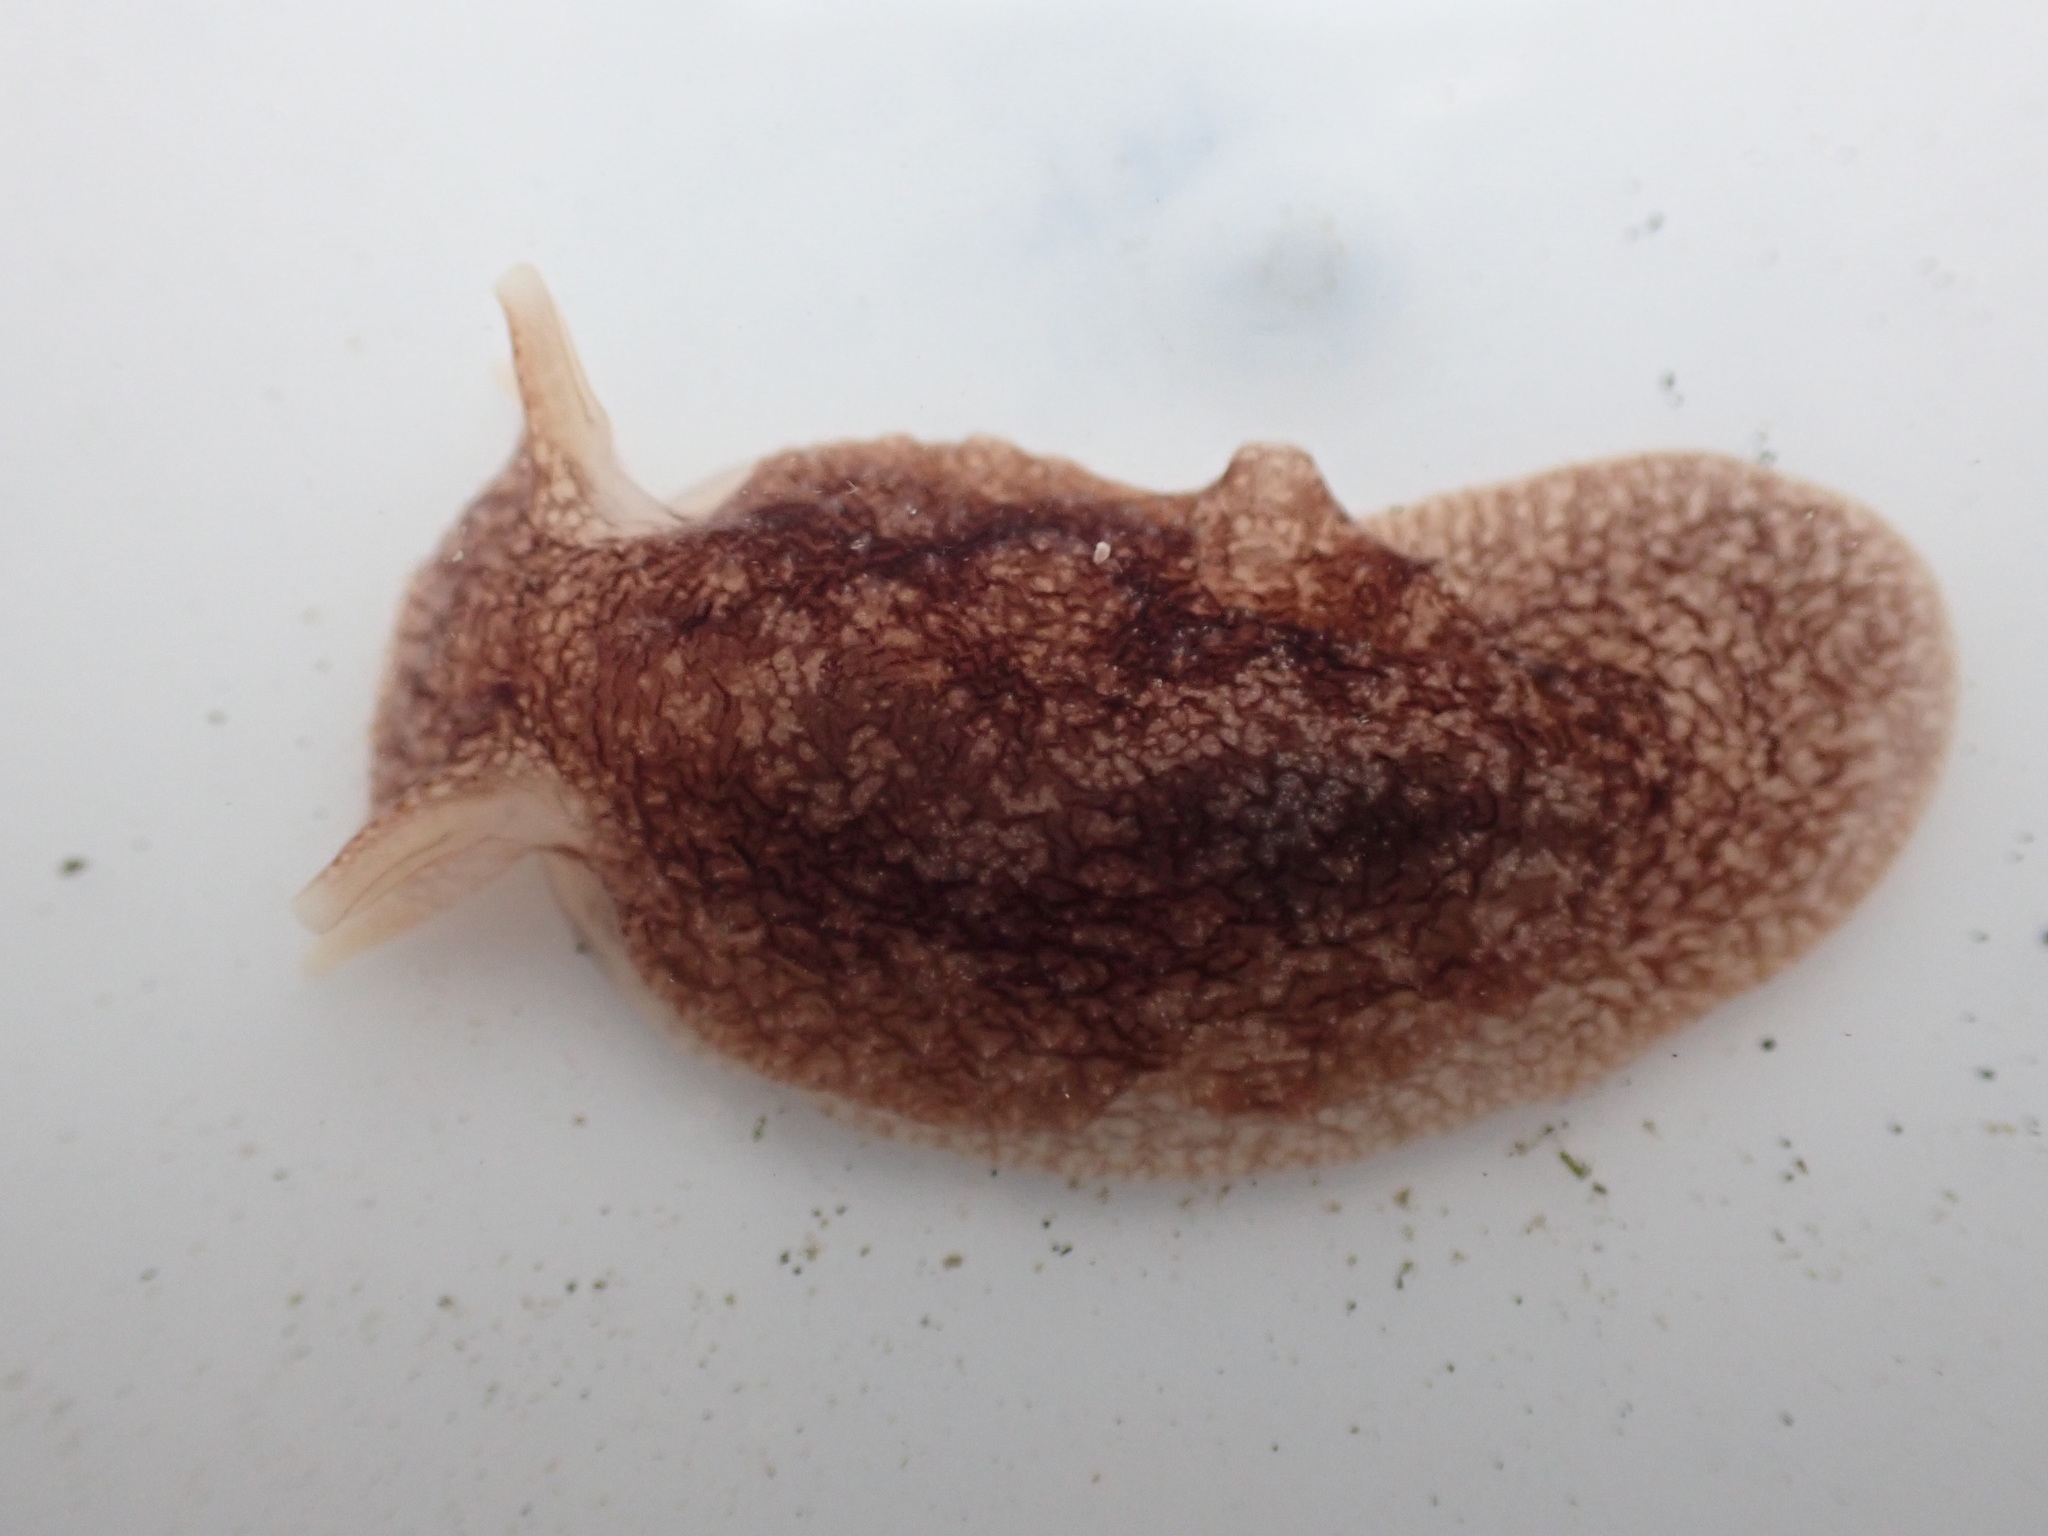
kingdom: Animalia
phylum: Mollusca
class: Gastropoda
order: Pleurobranchida
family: Pleurobranchaeidae
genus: Pleurobranchaea
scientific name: Pleurobranchaea maculata
